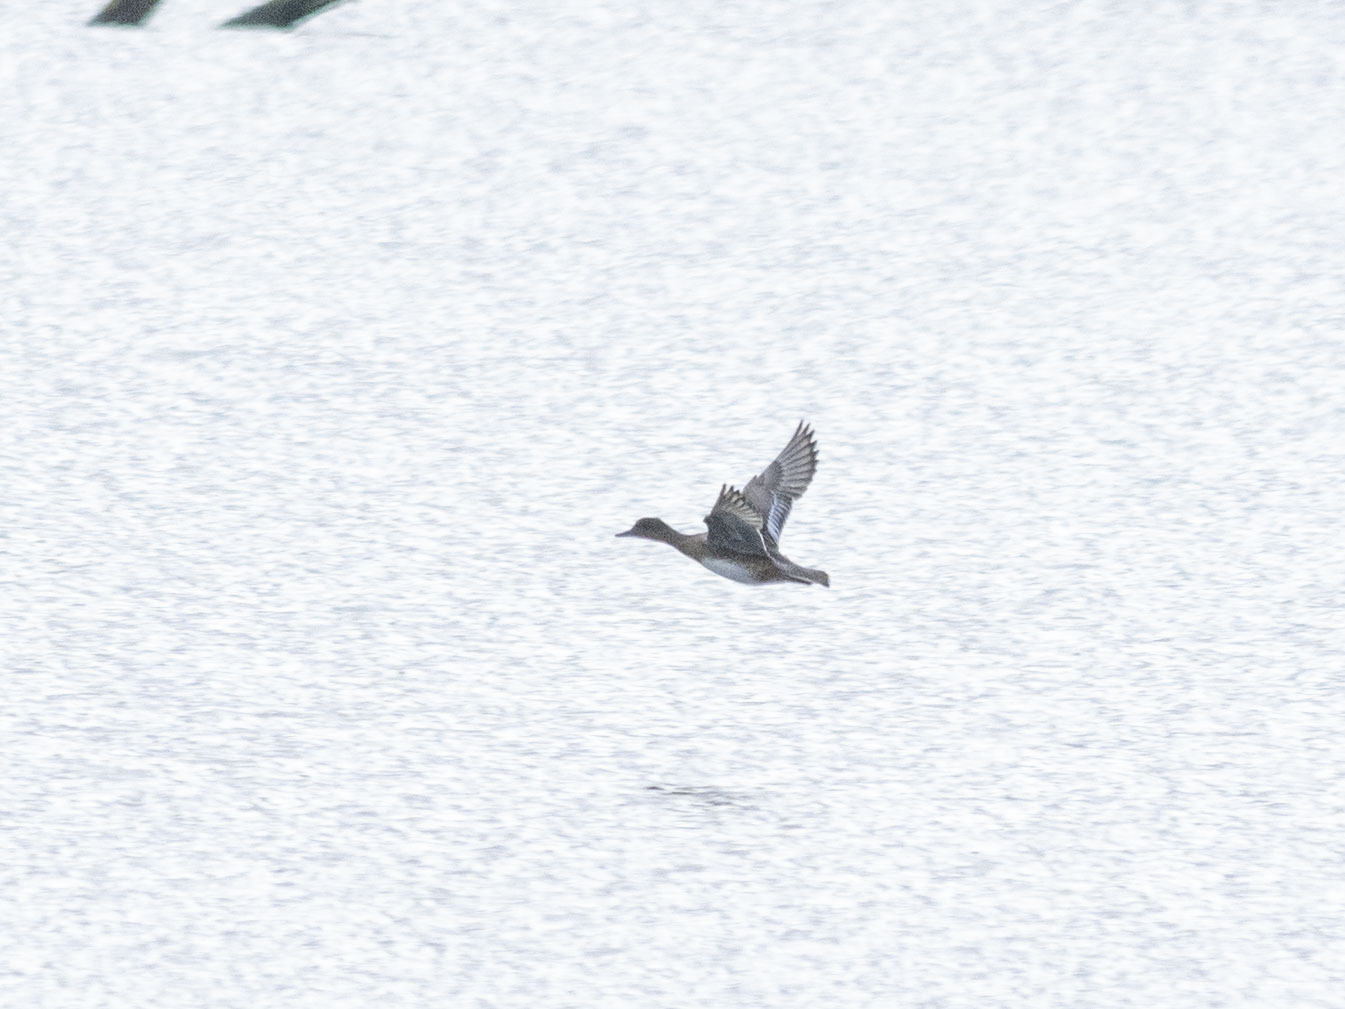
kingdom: Animalia
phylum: Chordata
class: Aves
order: Anseriformes
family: Anatidae
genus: Mareca
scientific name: Mareca penelope
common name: Eurasian wigeon
